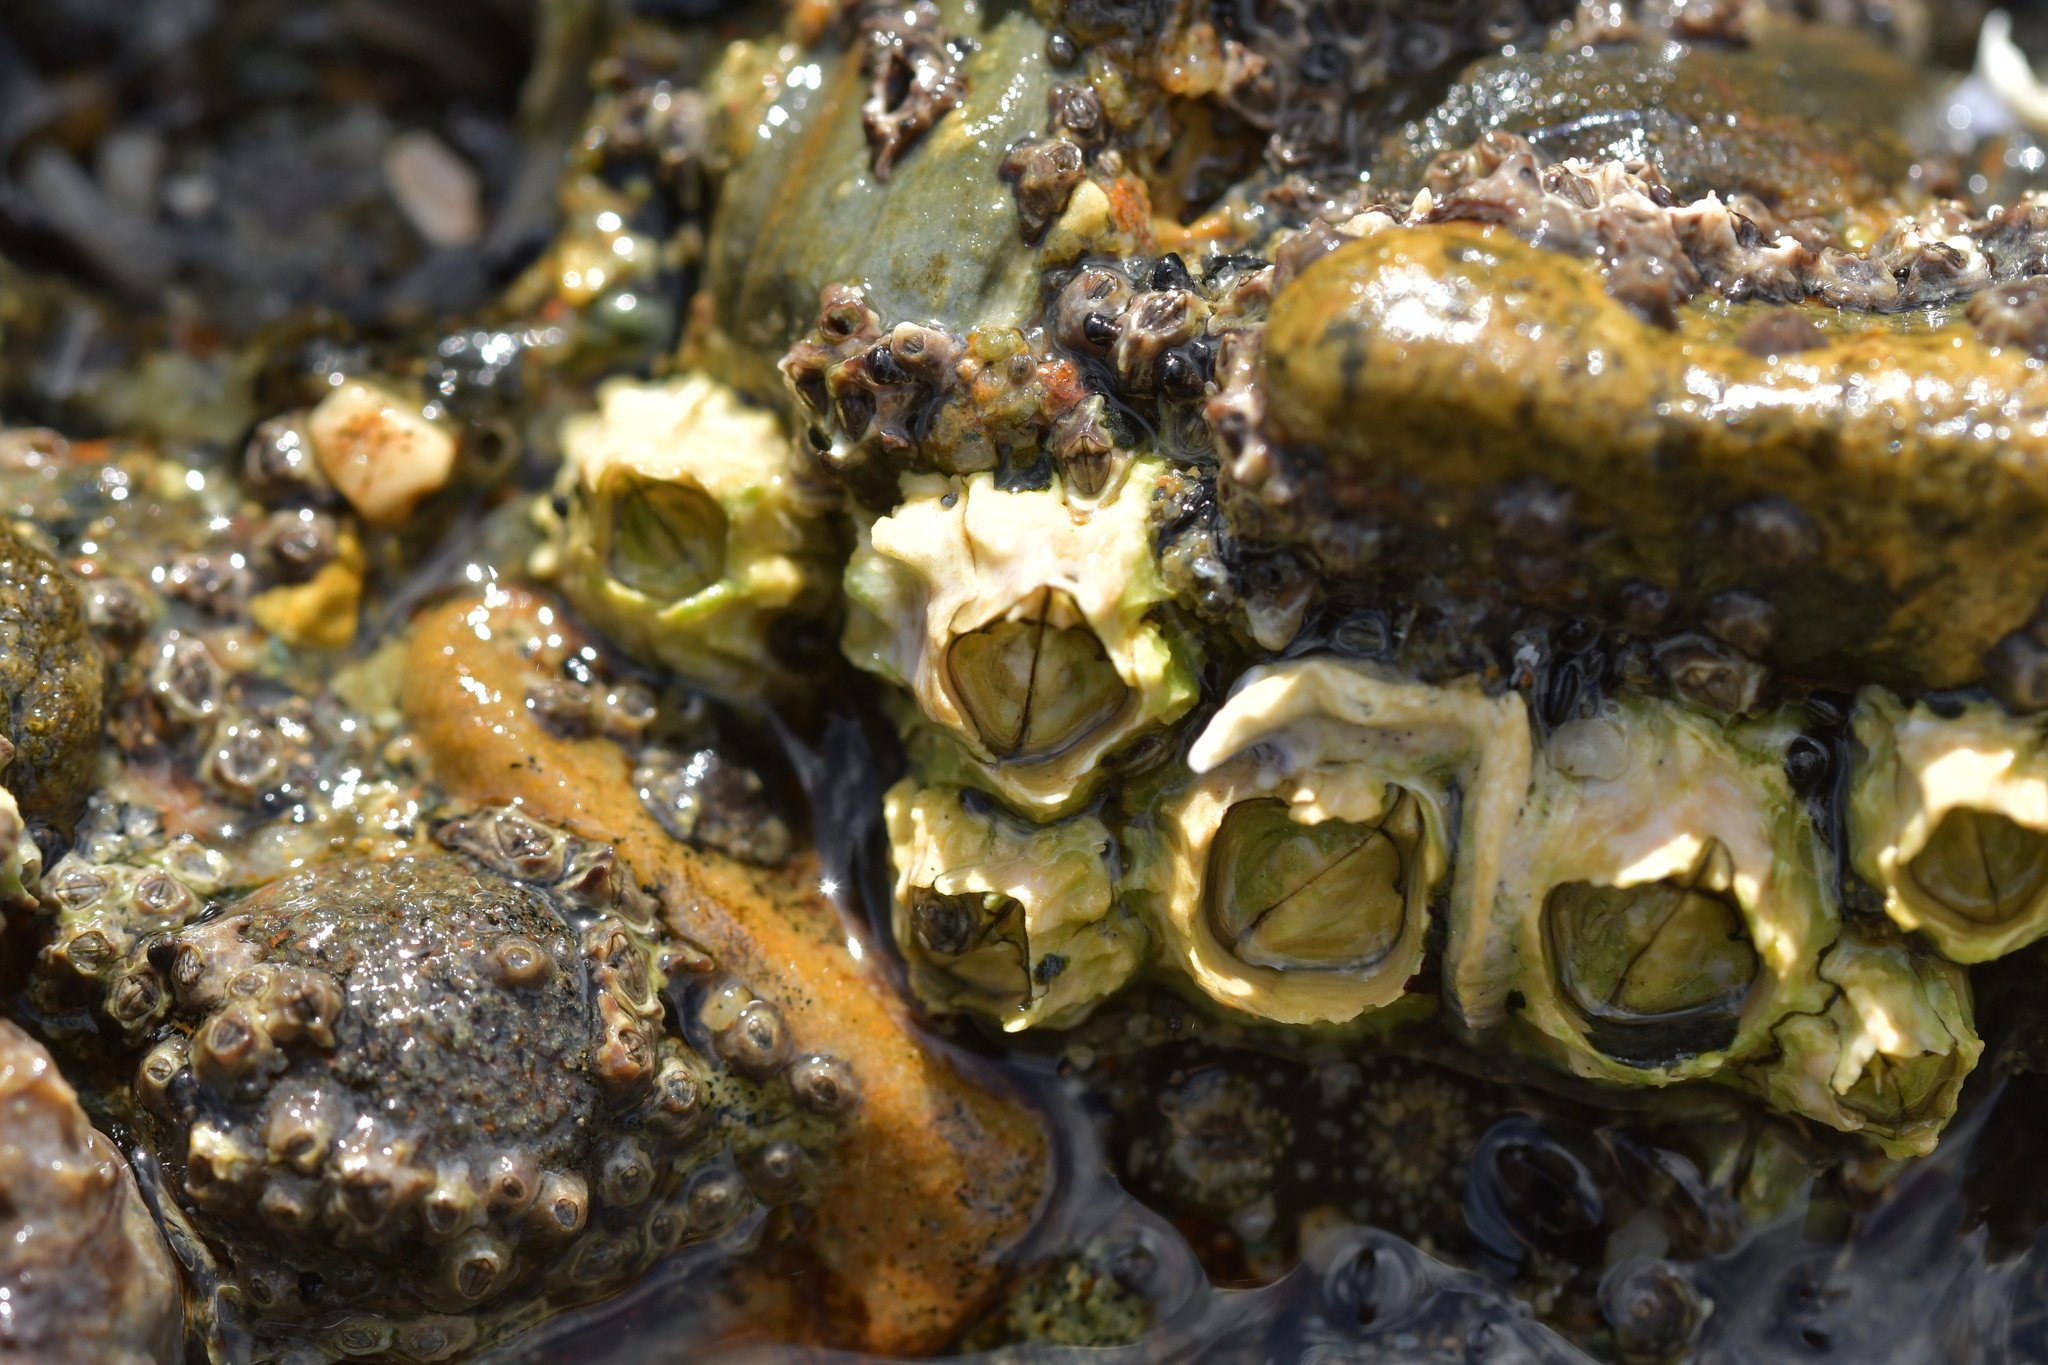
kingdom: Animalia
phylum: Arthropoda
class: Maxillopoda
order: Sessilia
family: Tetraclitidae
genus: Epopella
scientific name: Epopella plicata
